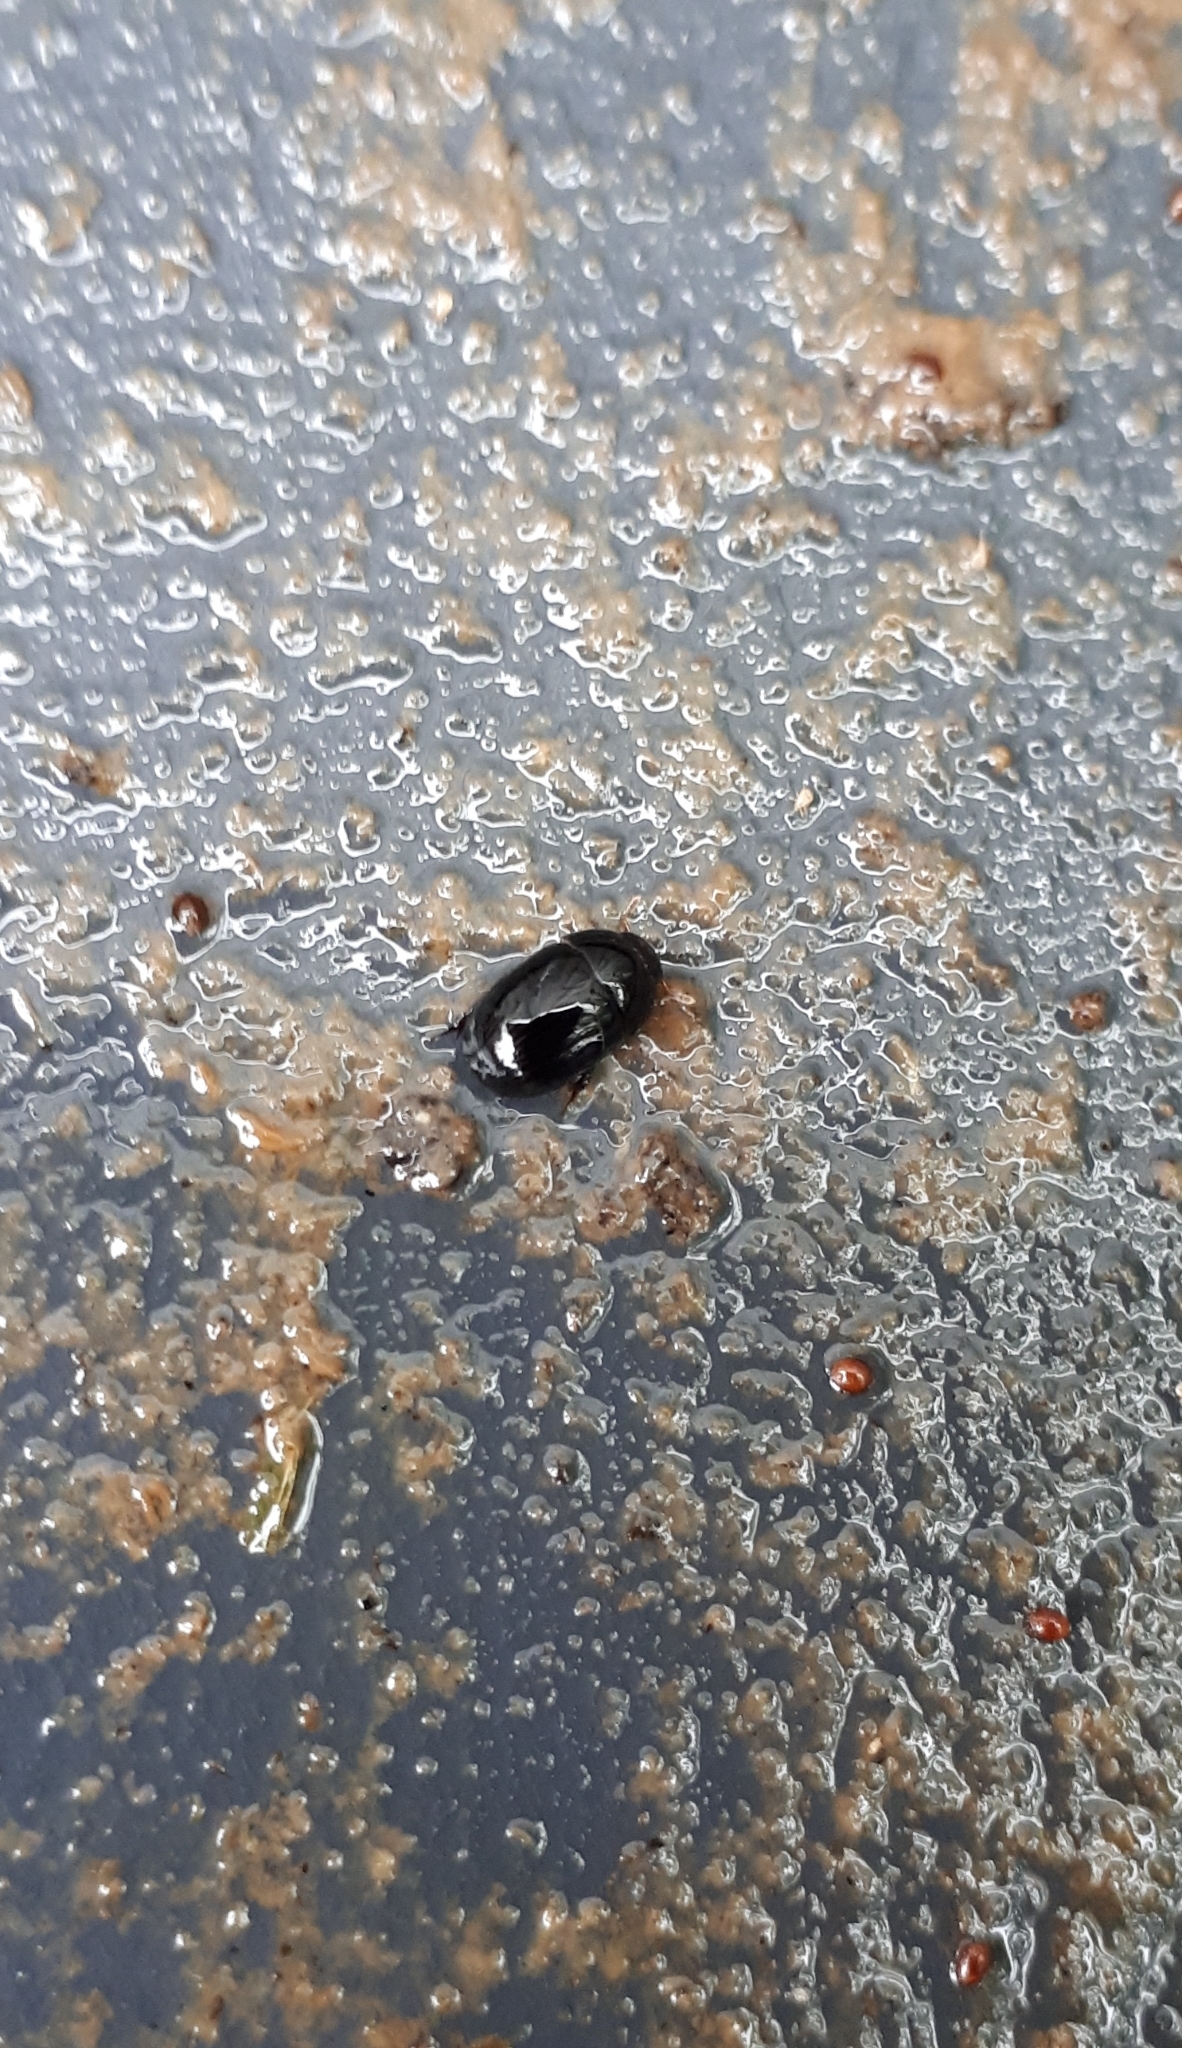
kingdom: Animalia
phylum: Arthropoda
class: Insecta
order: Coleoptera
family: Hydrophilidae
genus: Dactylosternum
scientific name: Dactylosternum abdominale
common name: Water scavenger beetle
